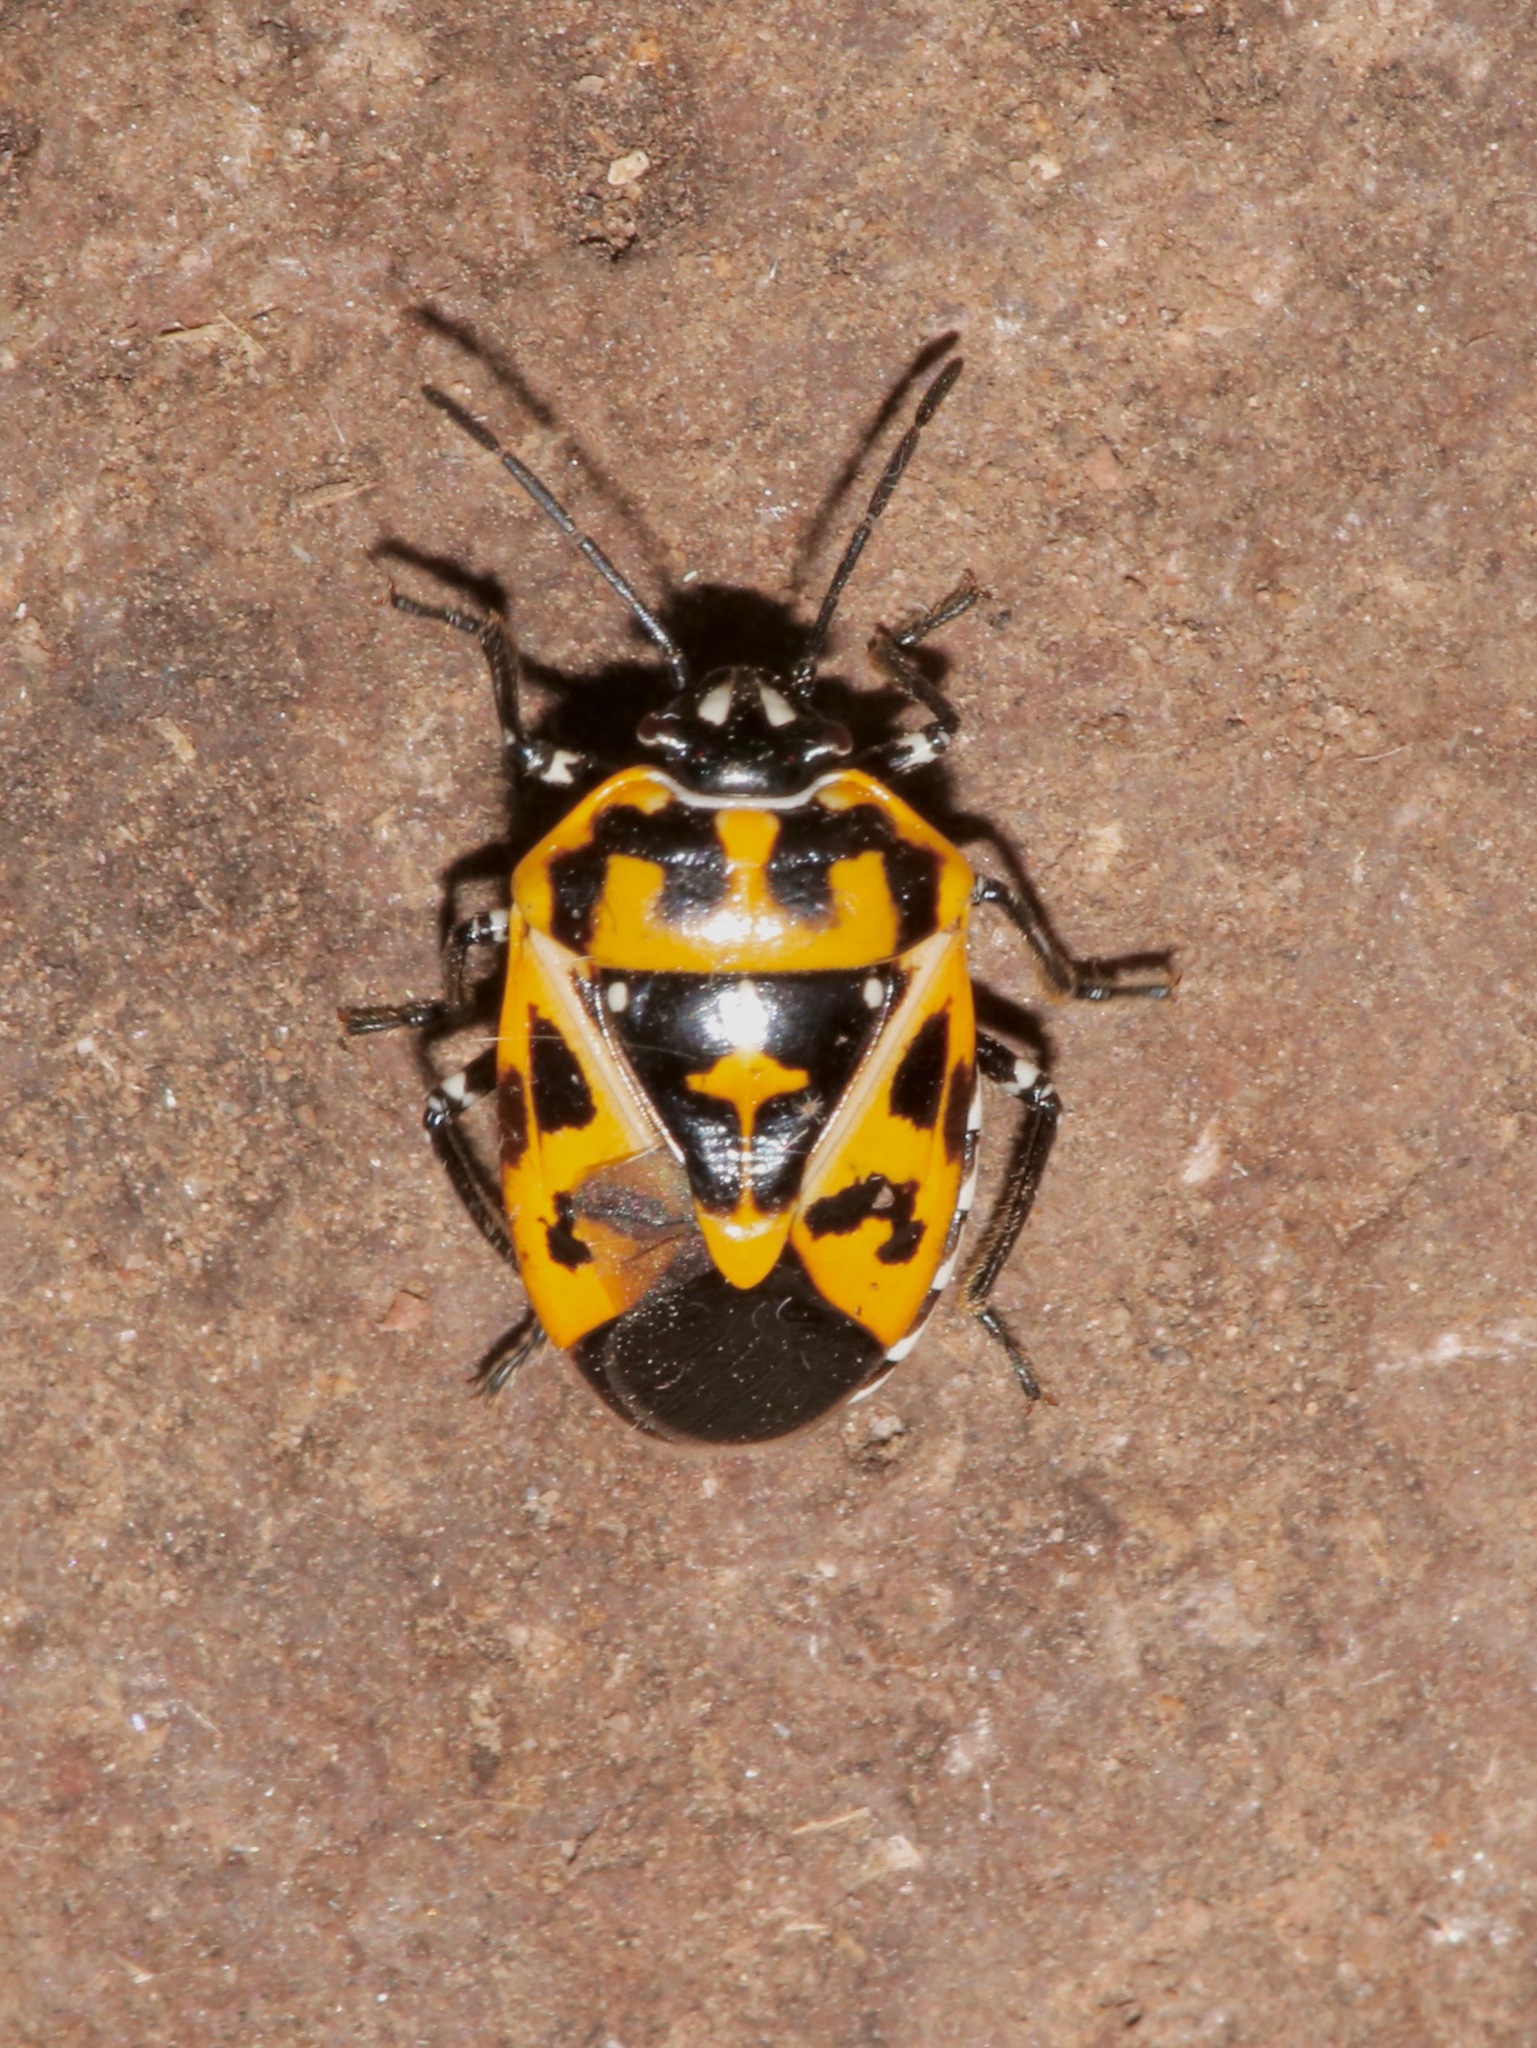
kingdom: Animalia
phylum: Arthropoda
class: Insecta
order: Hemiptera
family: Pentatomidae
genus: Murgantia
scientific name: Murgantia histrionica
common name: Harlequin bug
